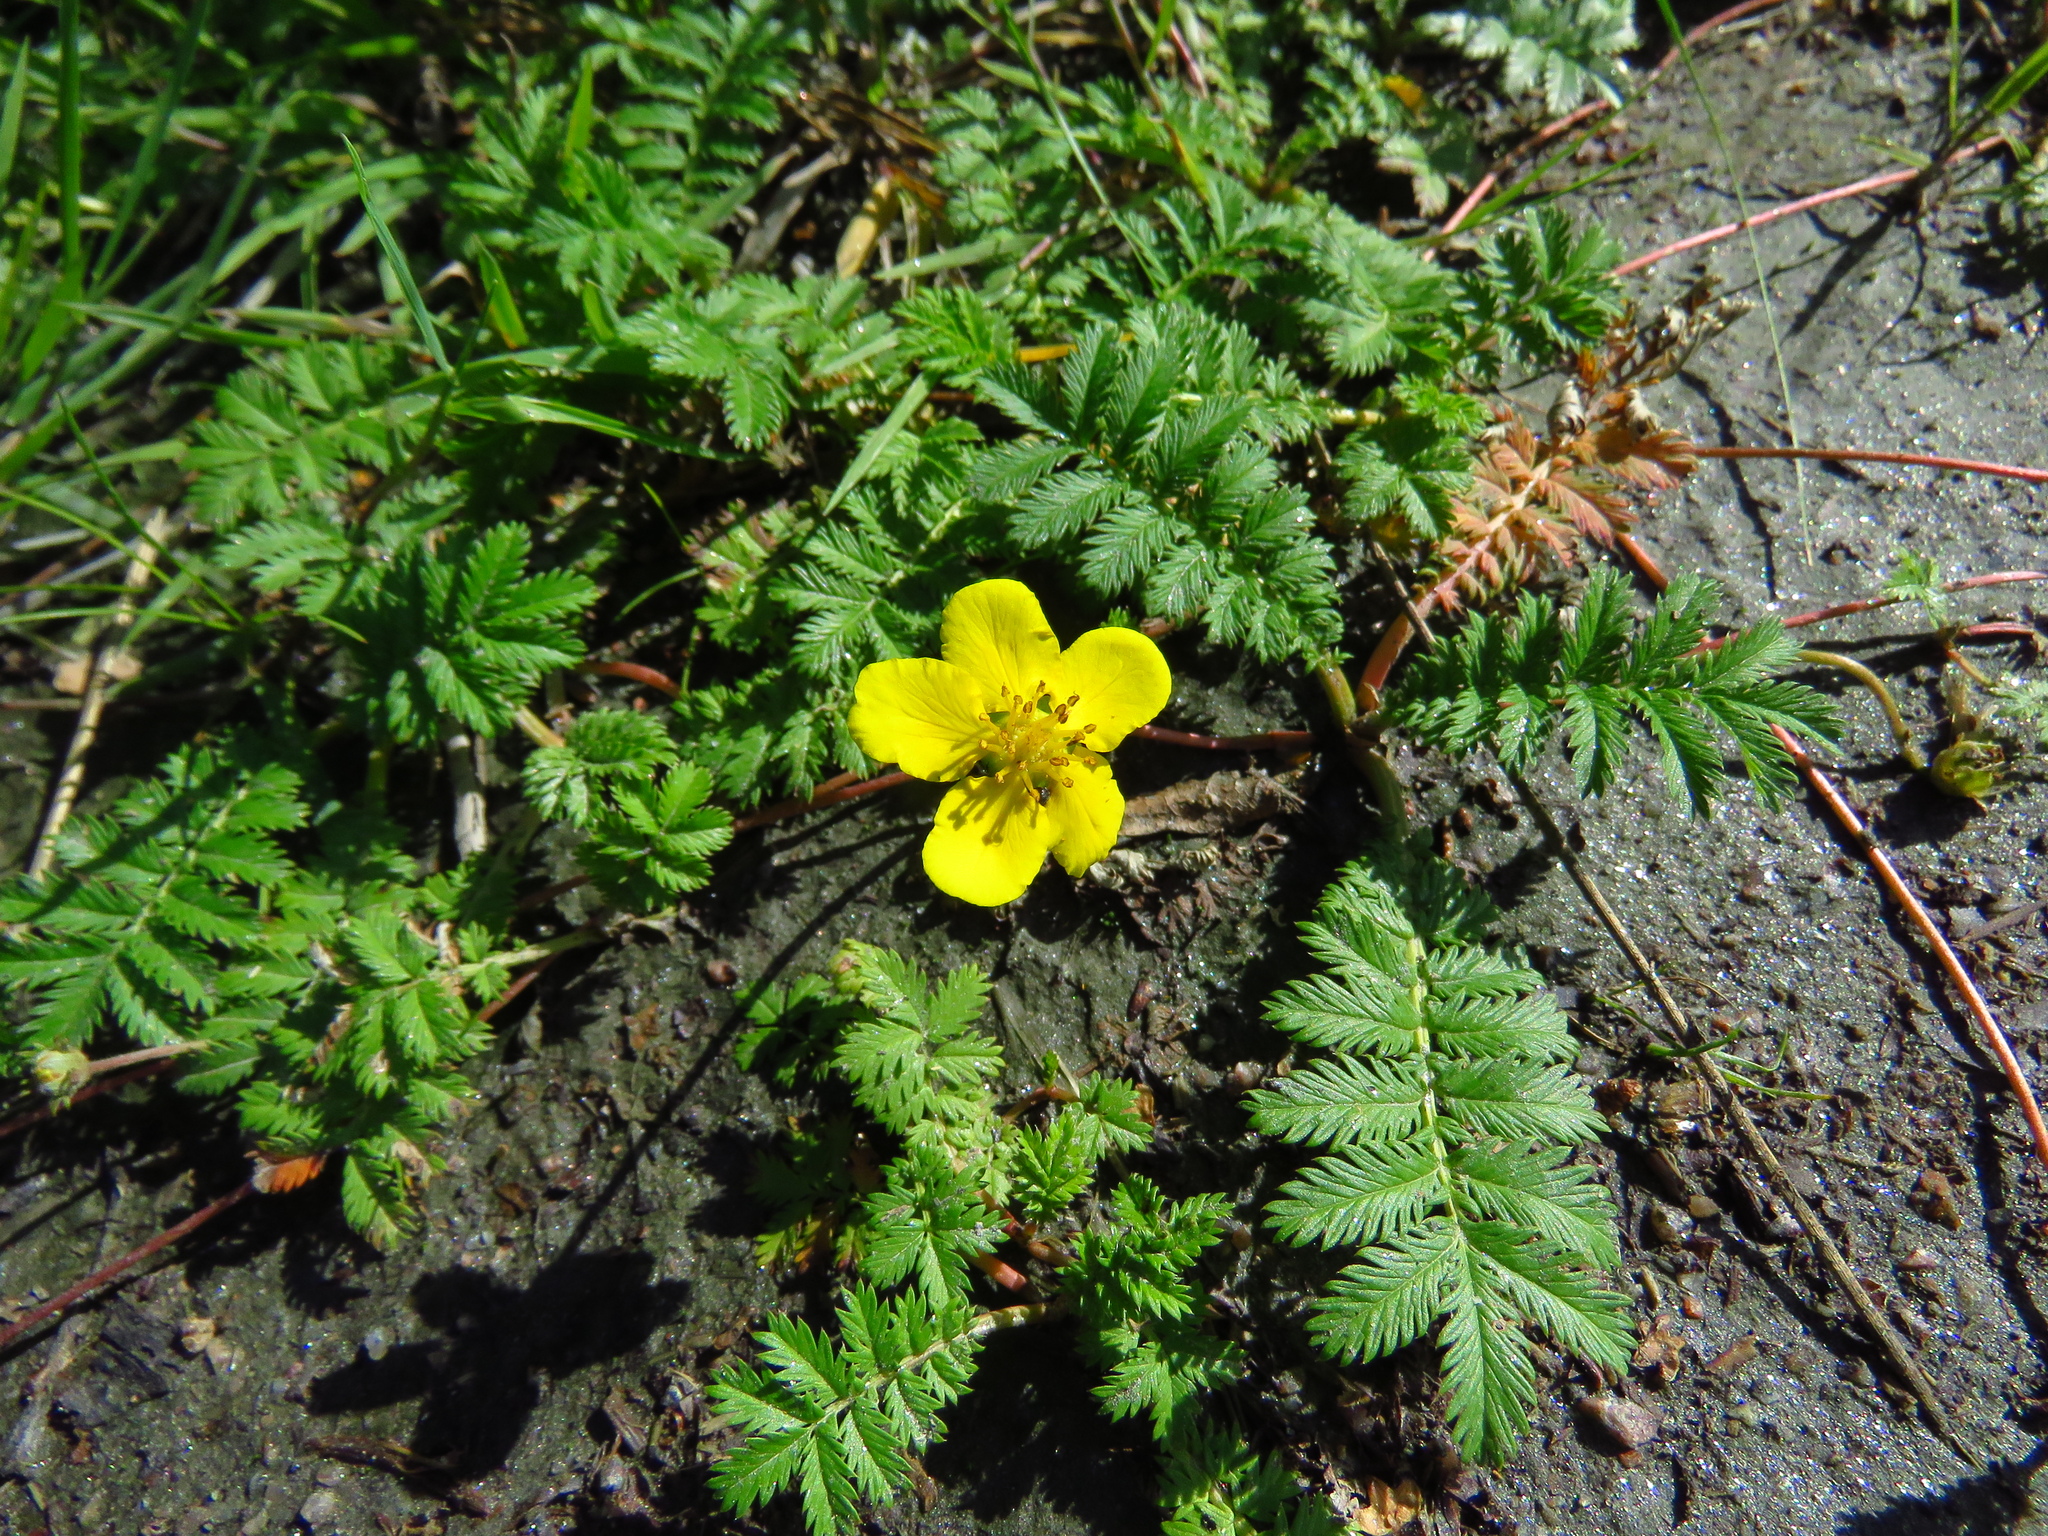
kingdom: Plantae
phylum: Tracheophyta
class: Magnoliopsida
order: Rosales
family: Rosaceae
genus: Argentina
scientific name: Argentina anserina
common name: Common silverweed
